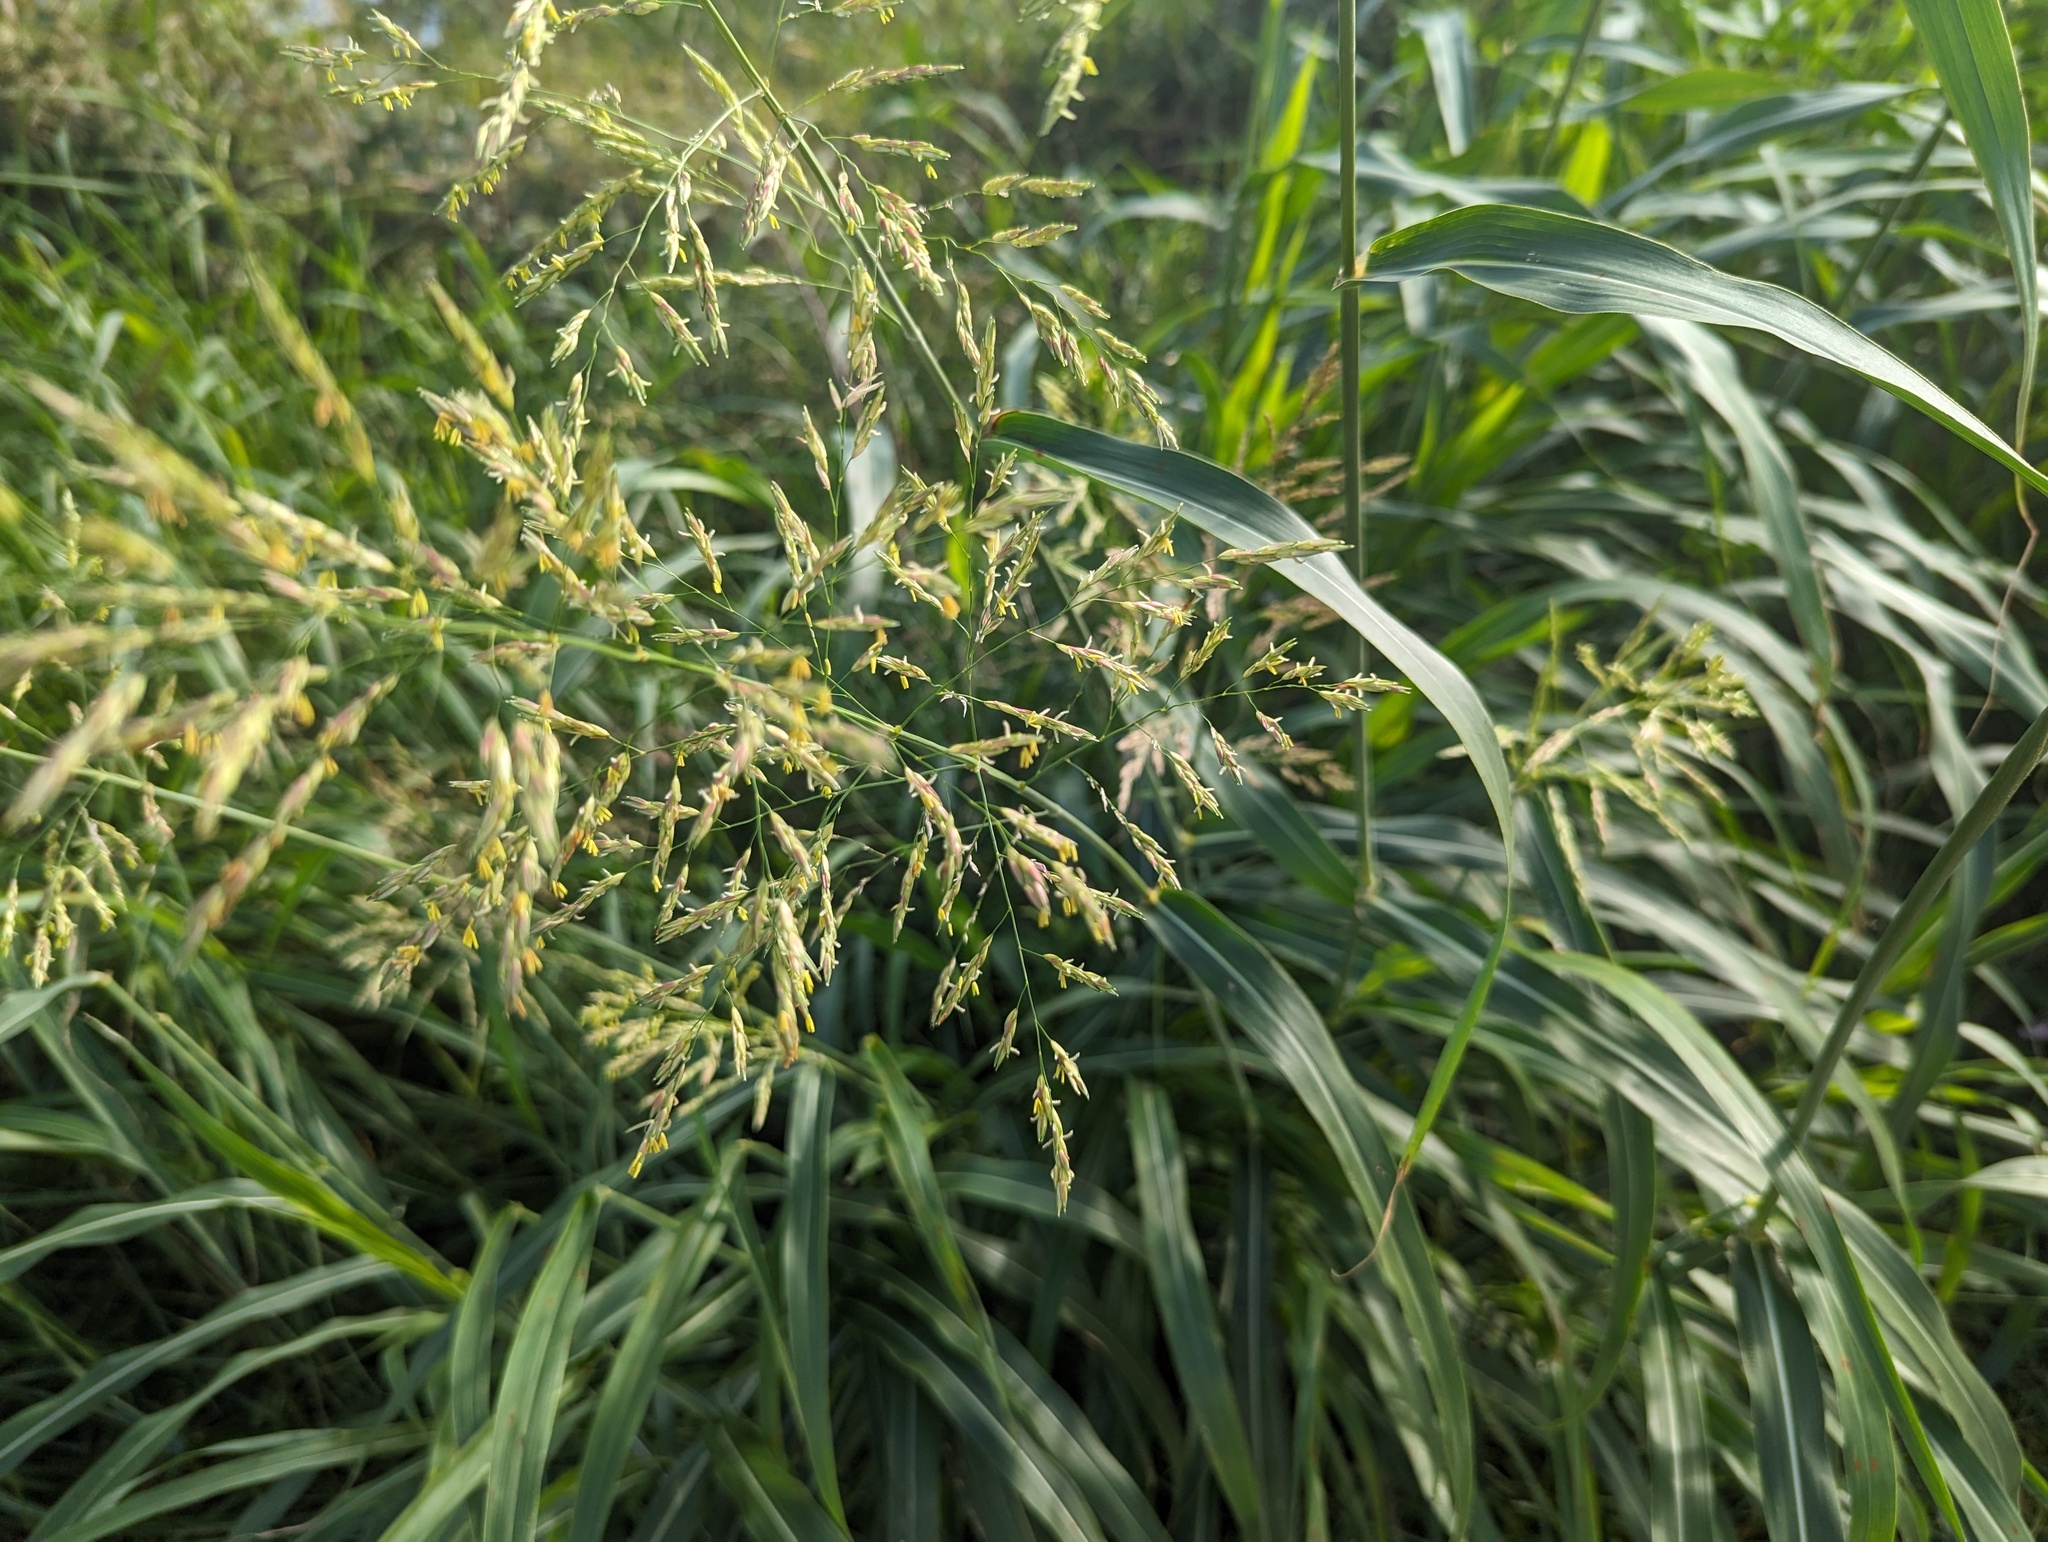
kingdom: Plantae
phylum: Tracheophyta
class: Liliopsida
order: Poales
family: Poaceae
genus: Sorghum
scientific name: Sorghum halepense
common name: Johnson-grass
